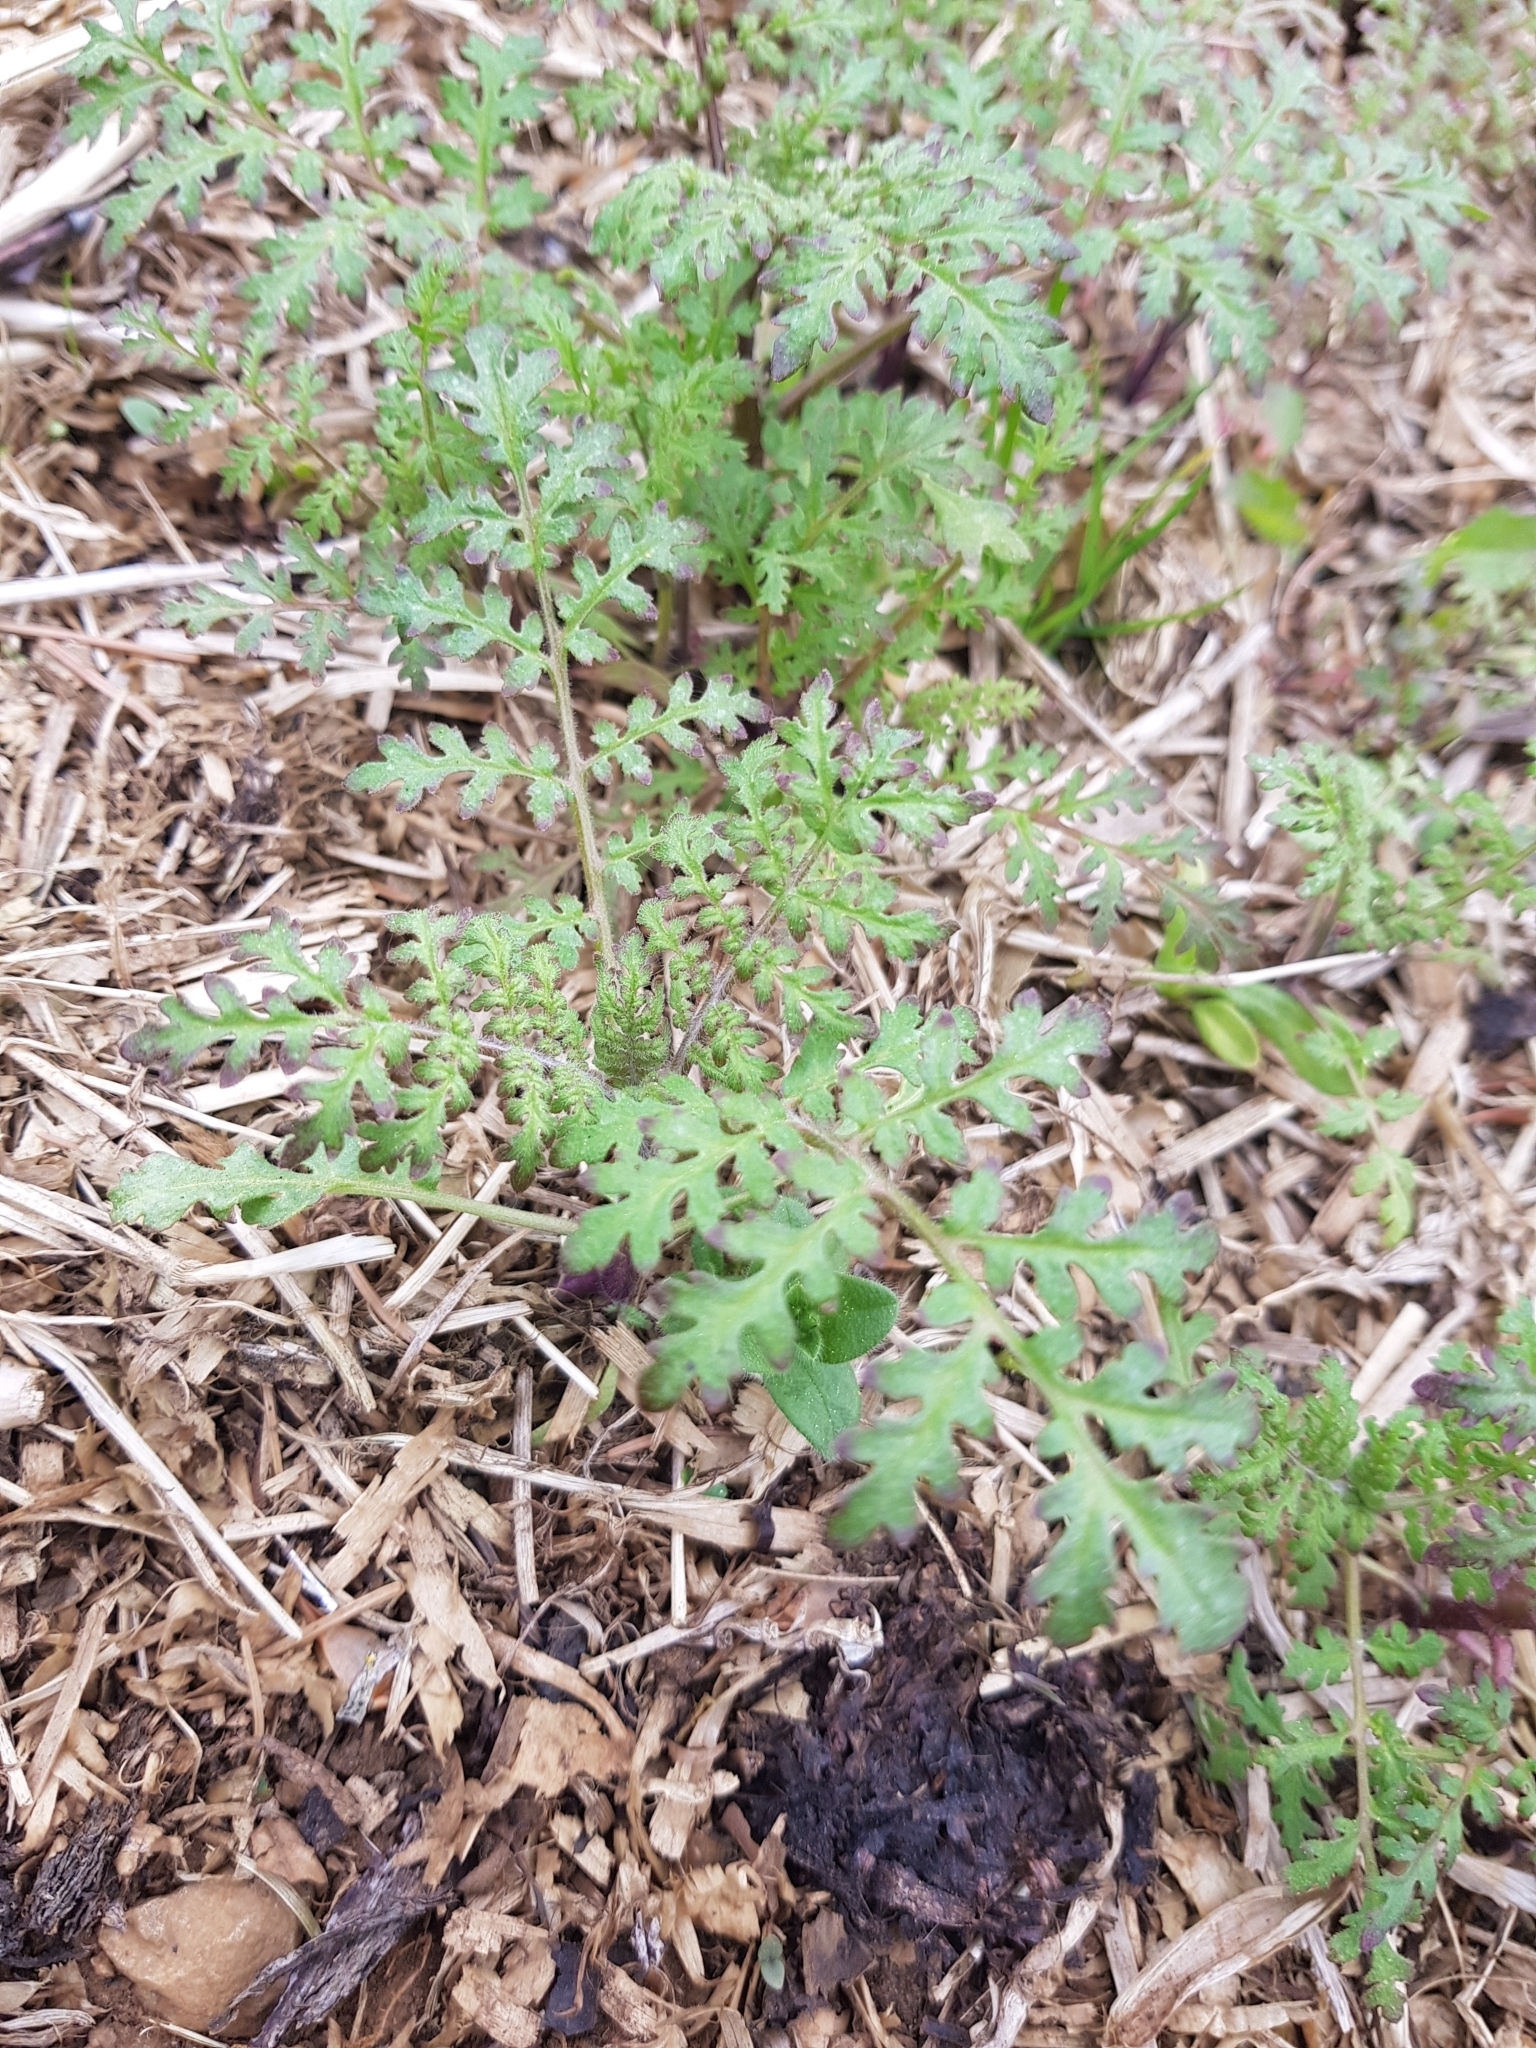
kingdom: Plantae
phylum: Tracheophyta
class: Magnoliopsida
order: Boraginales
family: Hydrophyllaceae
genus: Phacelia
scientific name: Phacelia tanacetifolia
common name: Phacelia
